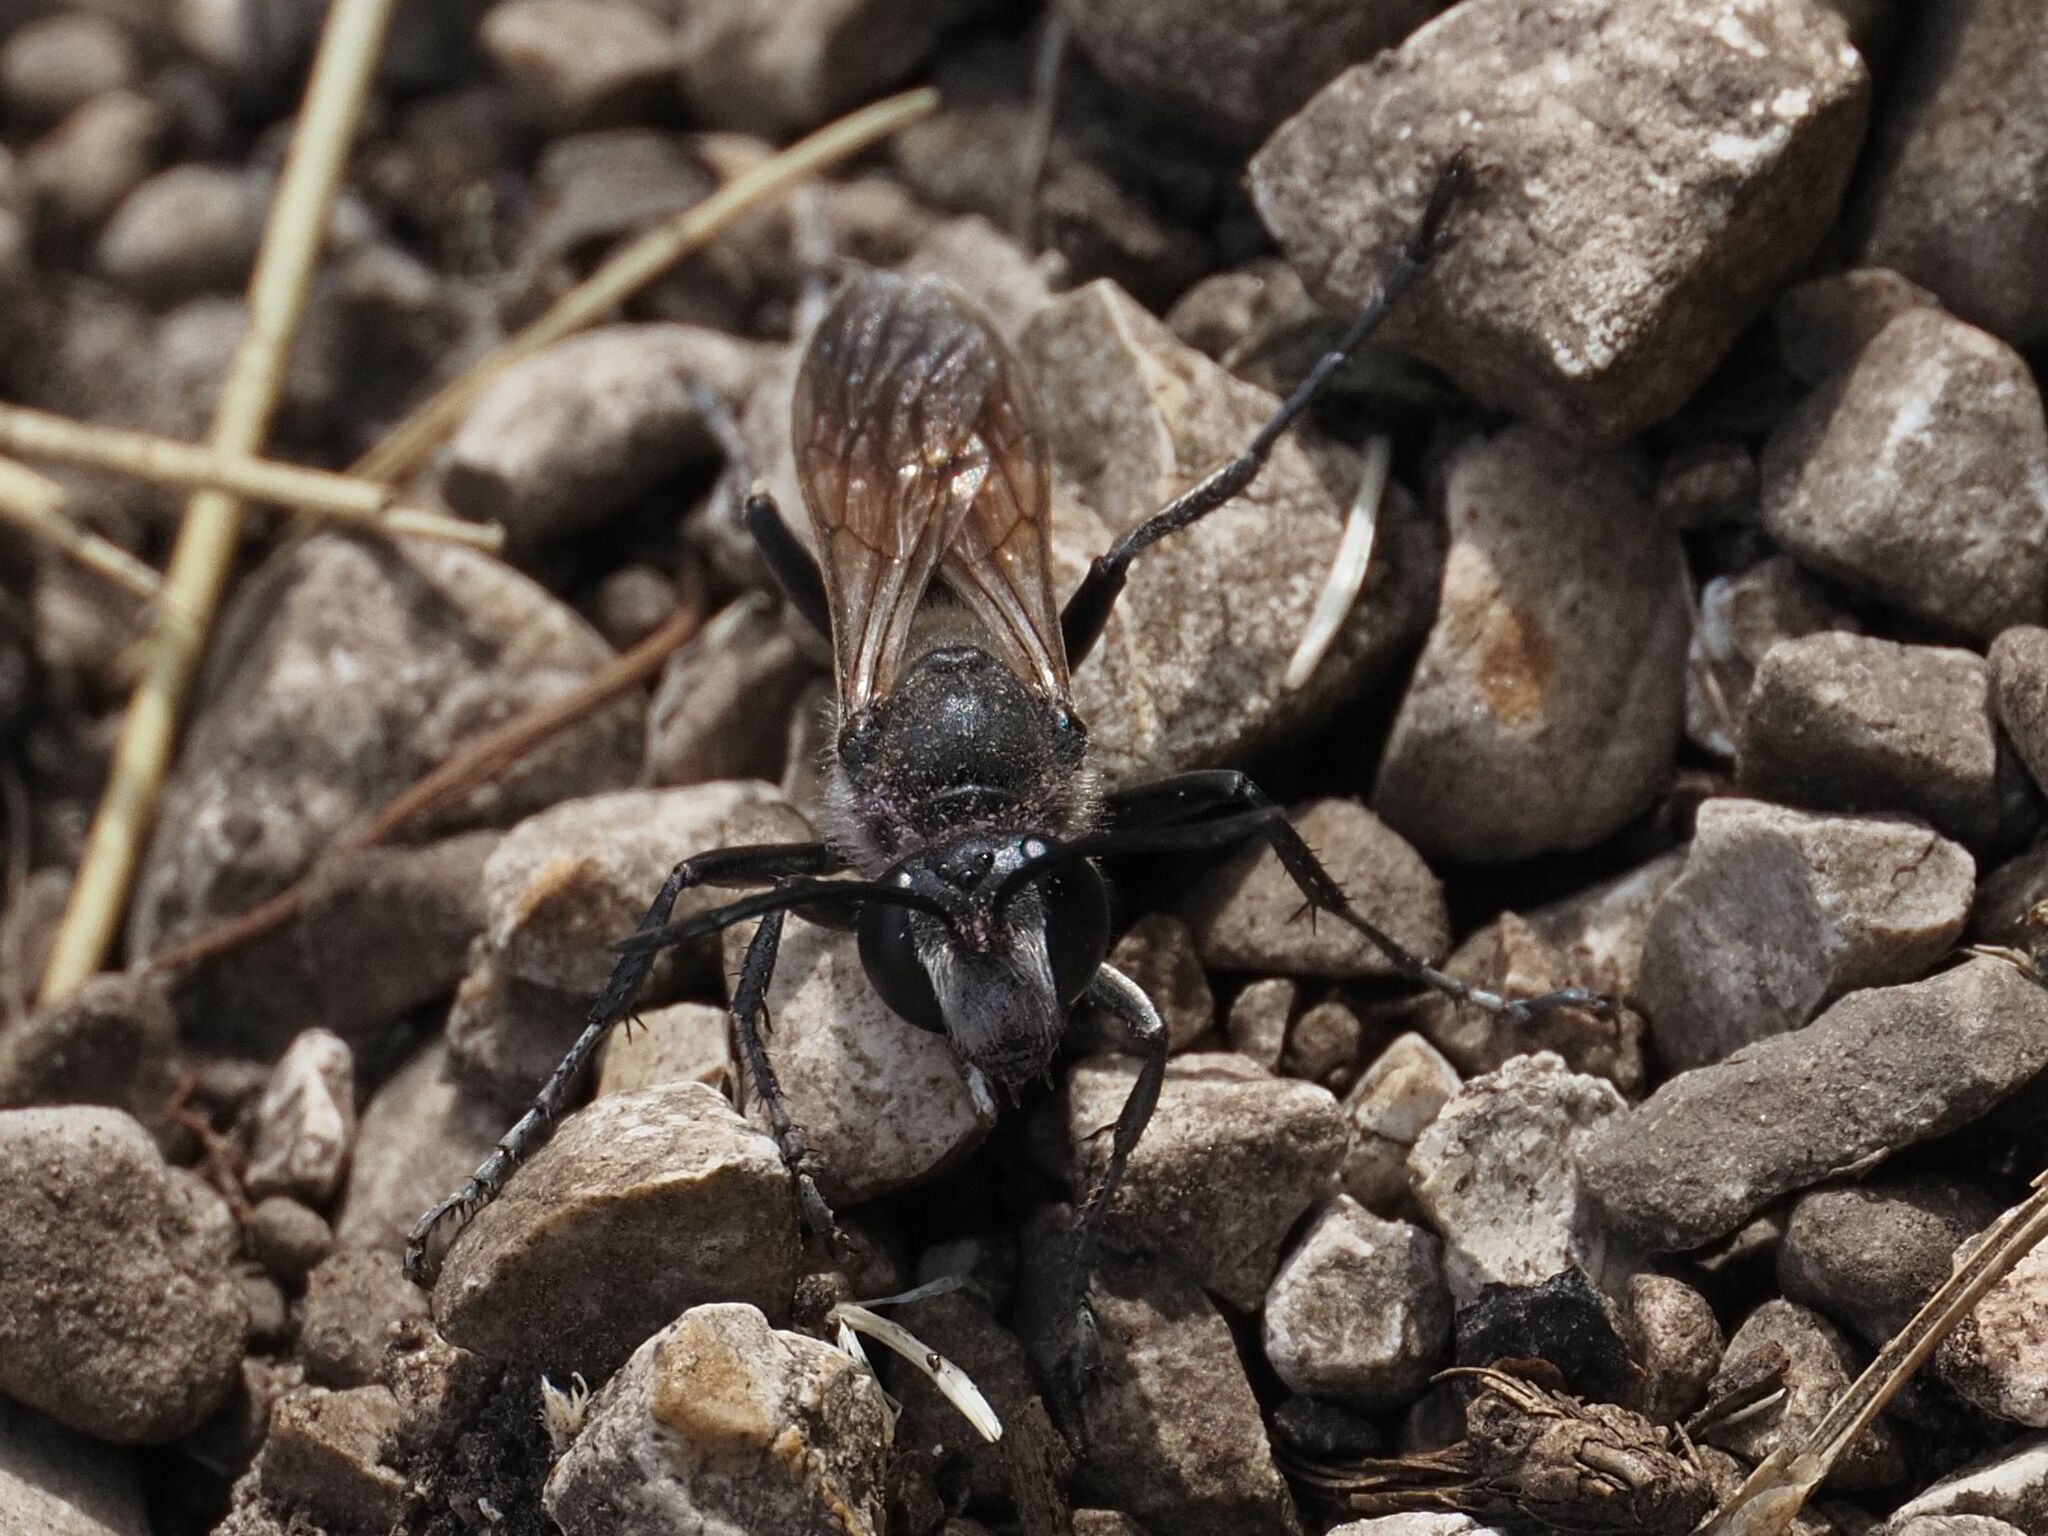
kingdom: Animalia
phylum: Arthropoda
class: Insecta
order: Hymenoptera
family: Sphecidae
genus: Sphex
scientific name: Sphex funerarius
